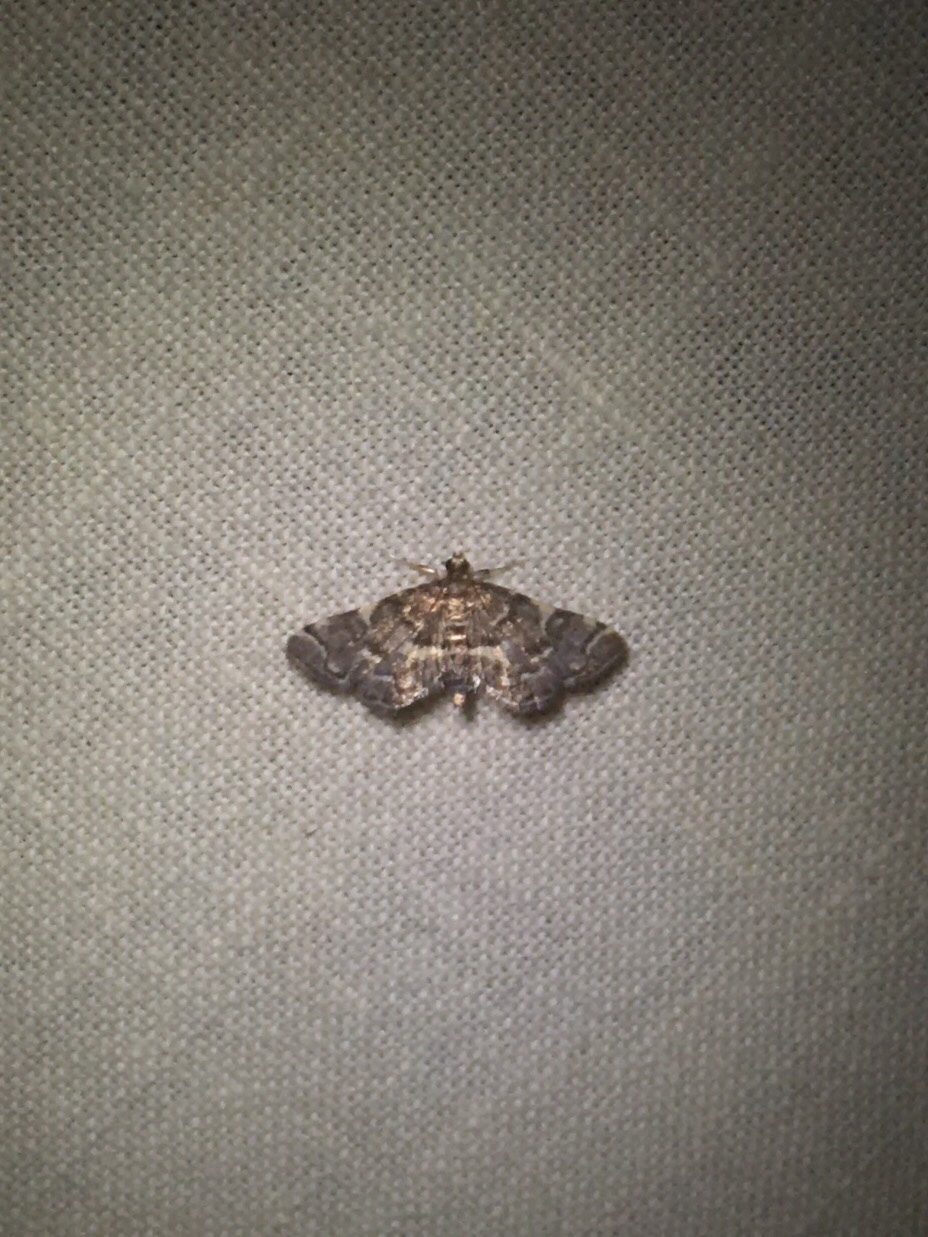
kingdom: Animalia
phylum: Arthropoda
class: Insecta
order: Lepidoptera
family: Crambidae
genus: Anageshna
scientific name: Anageshna primordialis
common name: Yellow-spotted webworm moth
